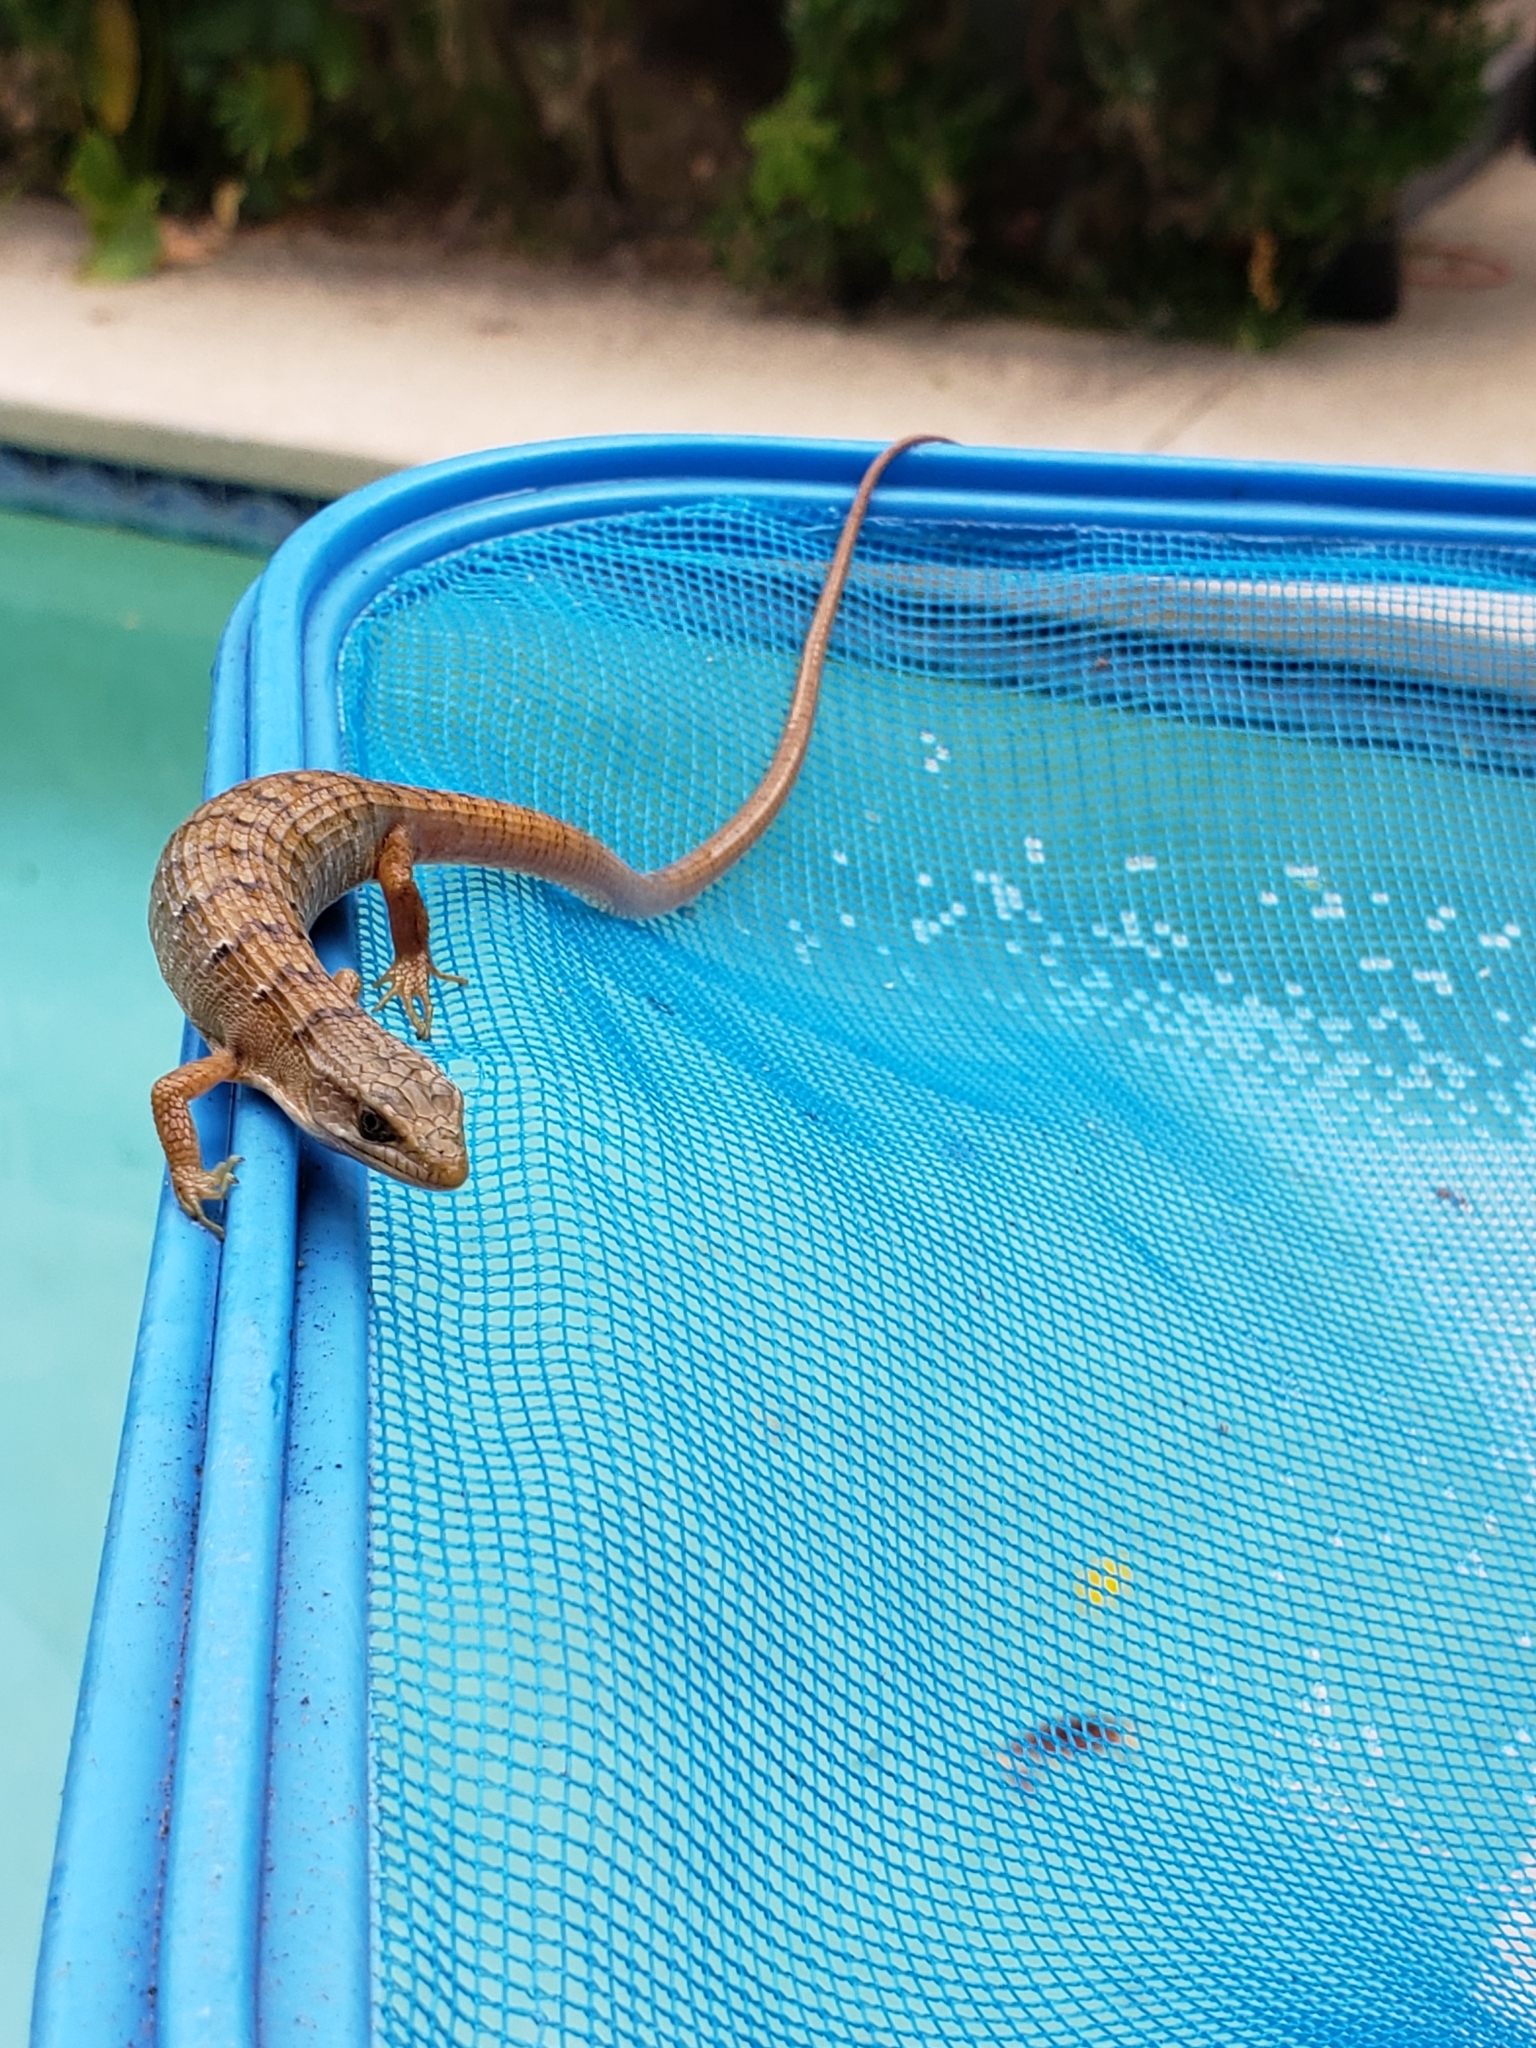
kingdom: Animalia
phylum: Chordata
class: Squamata
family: Anguidae
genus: Elgaria
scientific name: Elgaria multicarinata
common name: Southern alligator lizard
